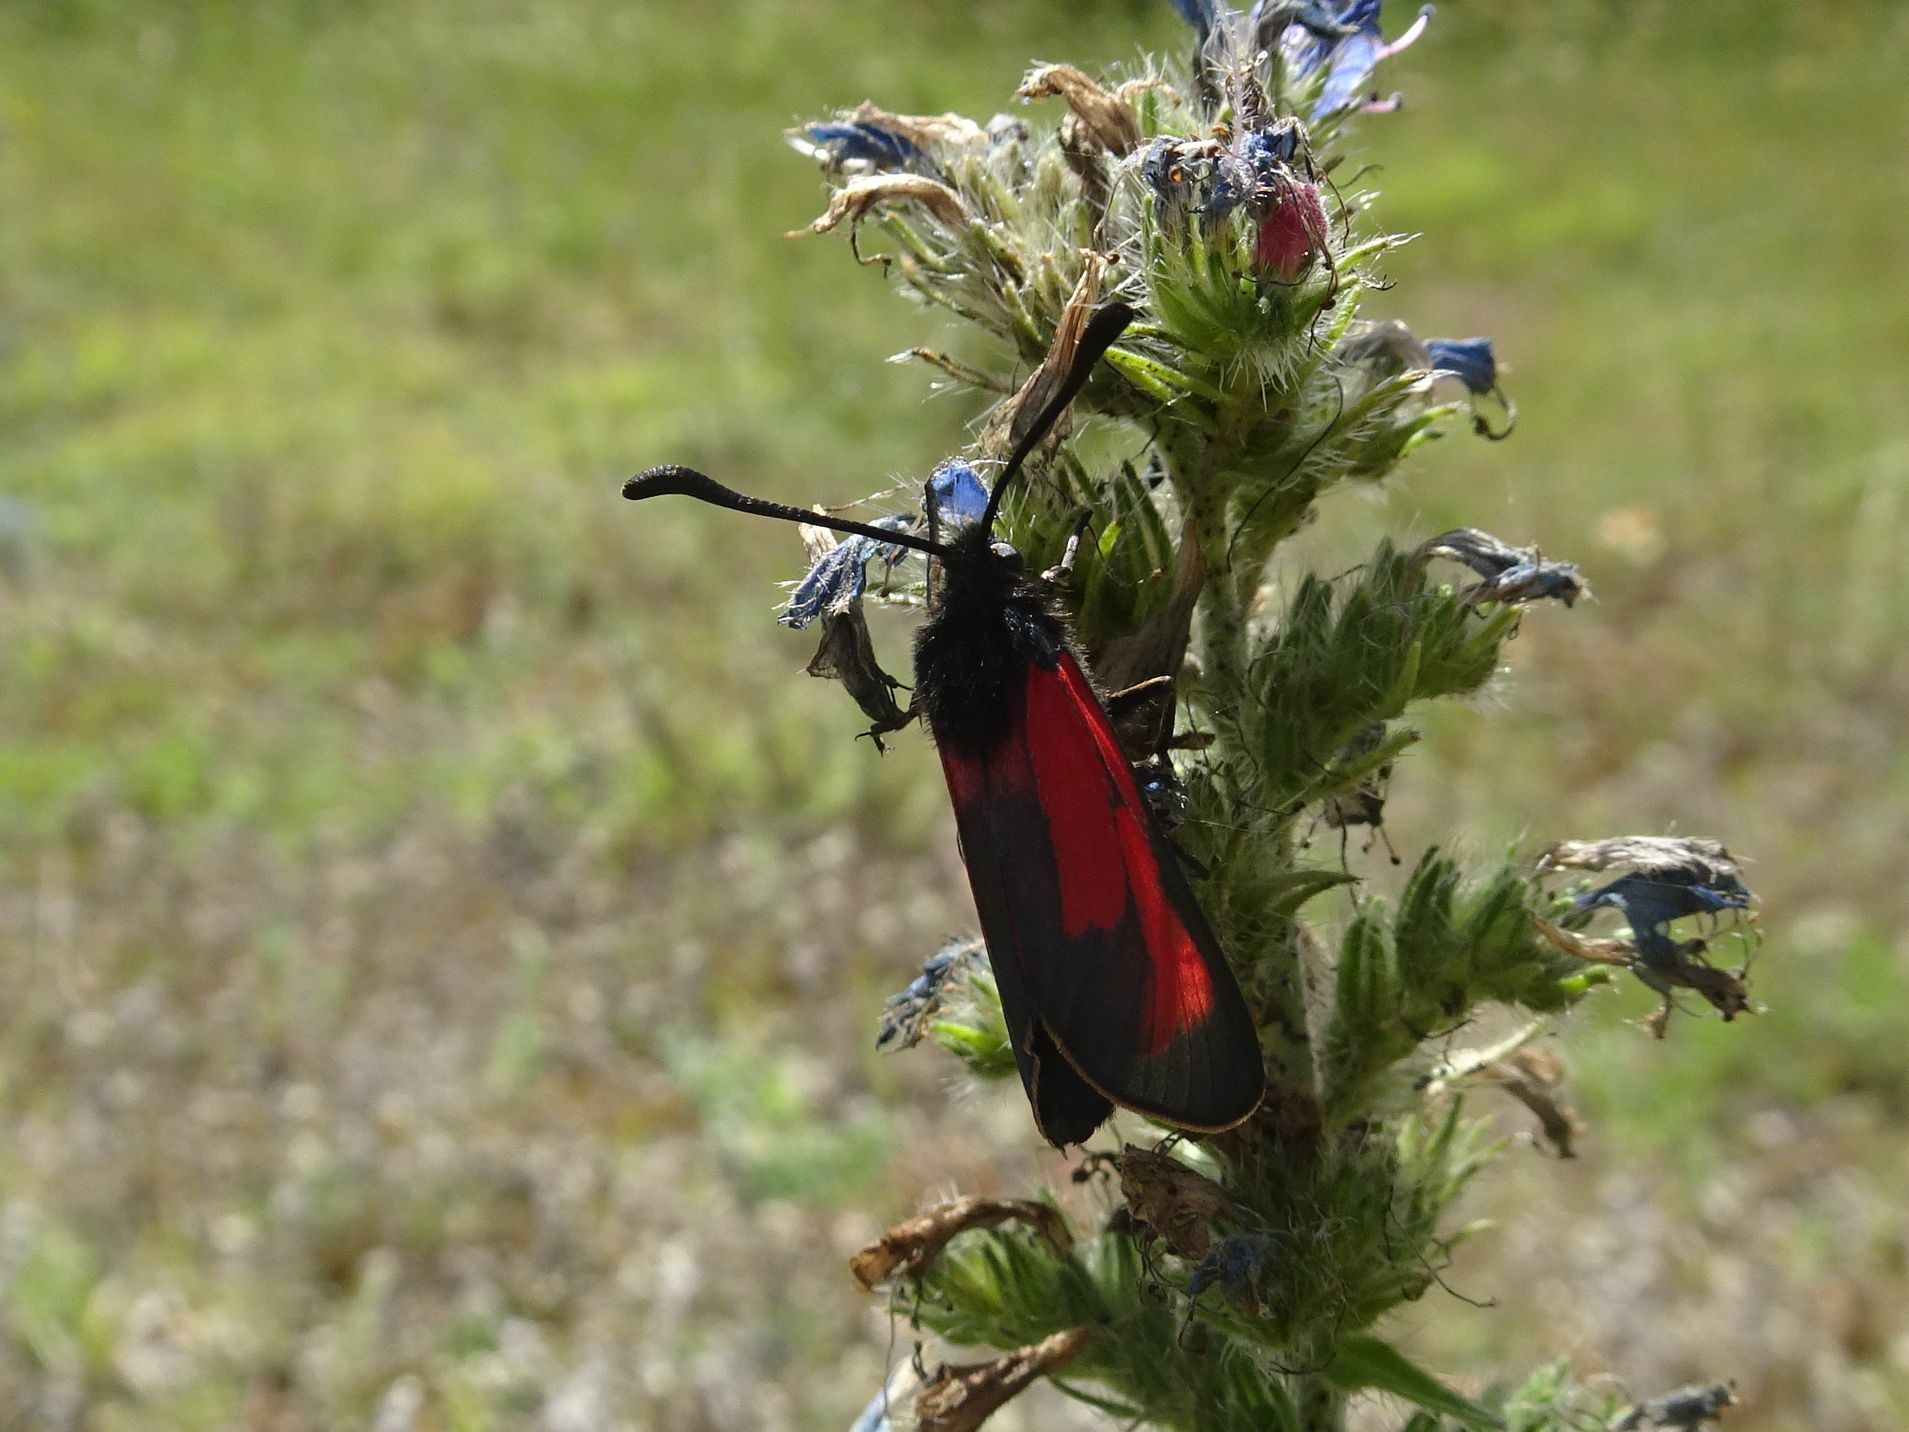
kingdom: Animalia
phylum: Arthropoda
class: Insecta
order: Lepidoptera
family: Zygaenidae
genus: Zygaena
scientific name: Zygaena erythrus
